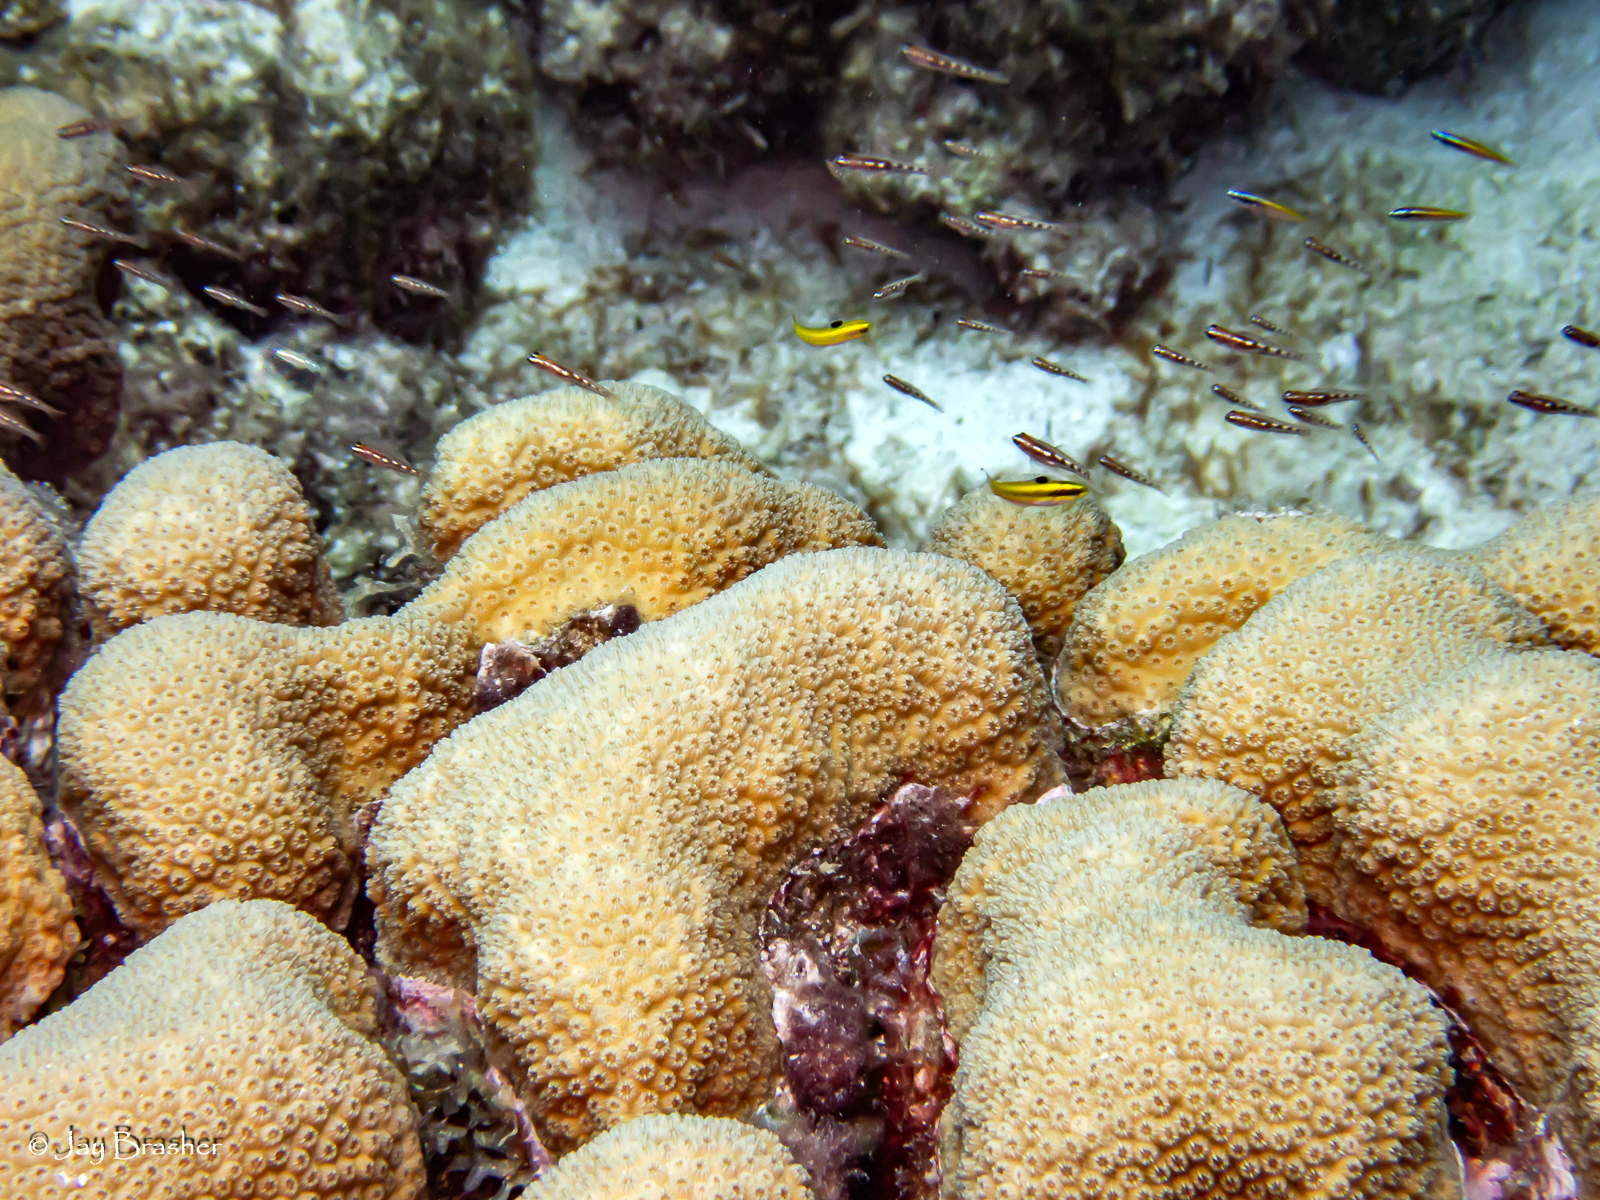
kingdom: Animalia
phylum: Cnidaria
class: Anthozoa
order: Scleractinia
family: Merulinidae
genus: Orbicella
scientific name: Orbicella annularis
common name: Boulder star coral
